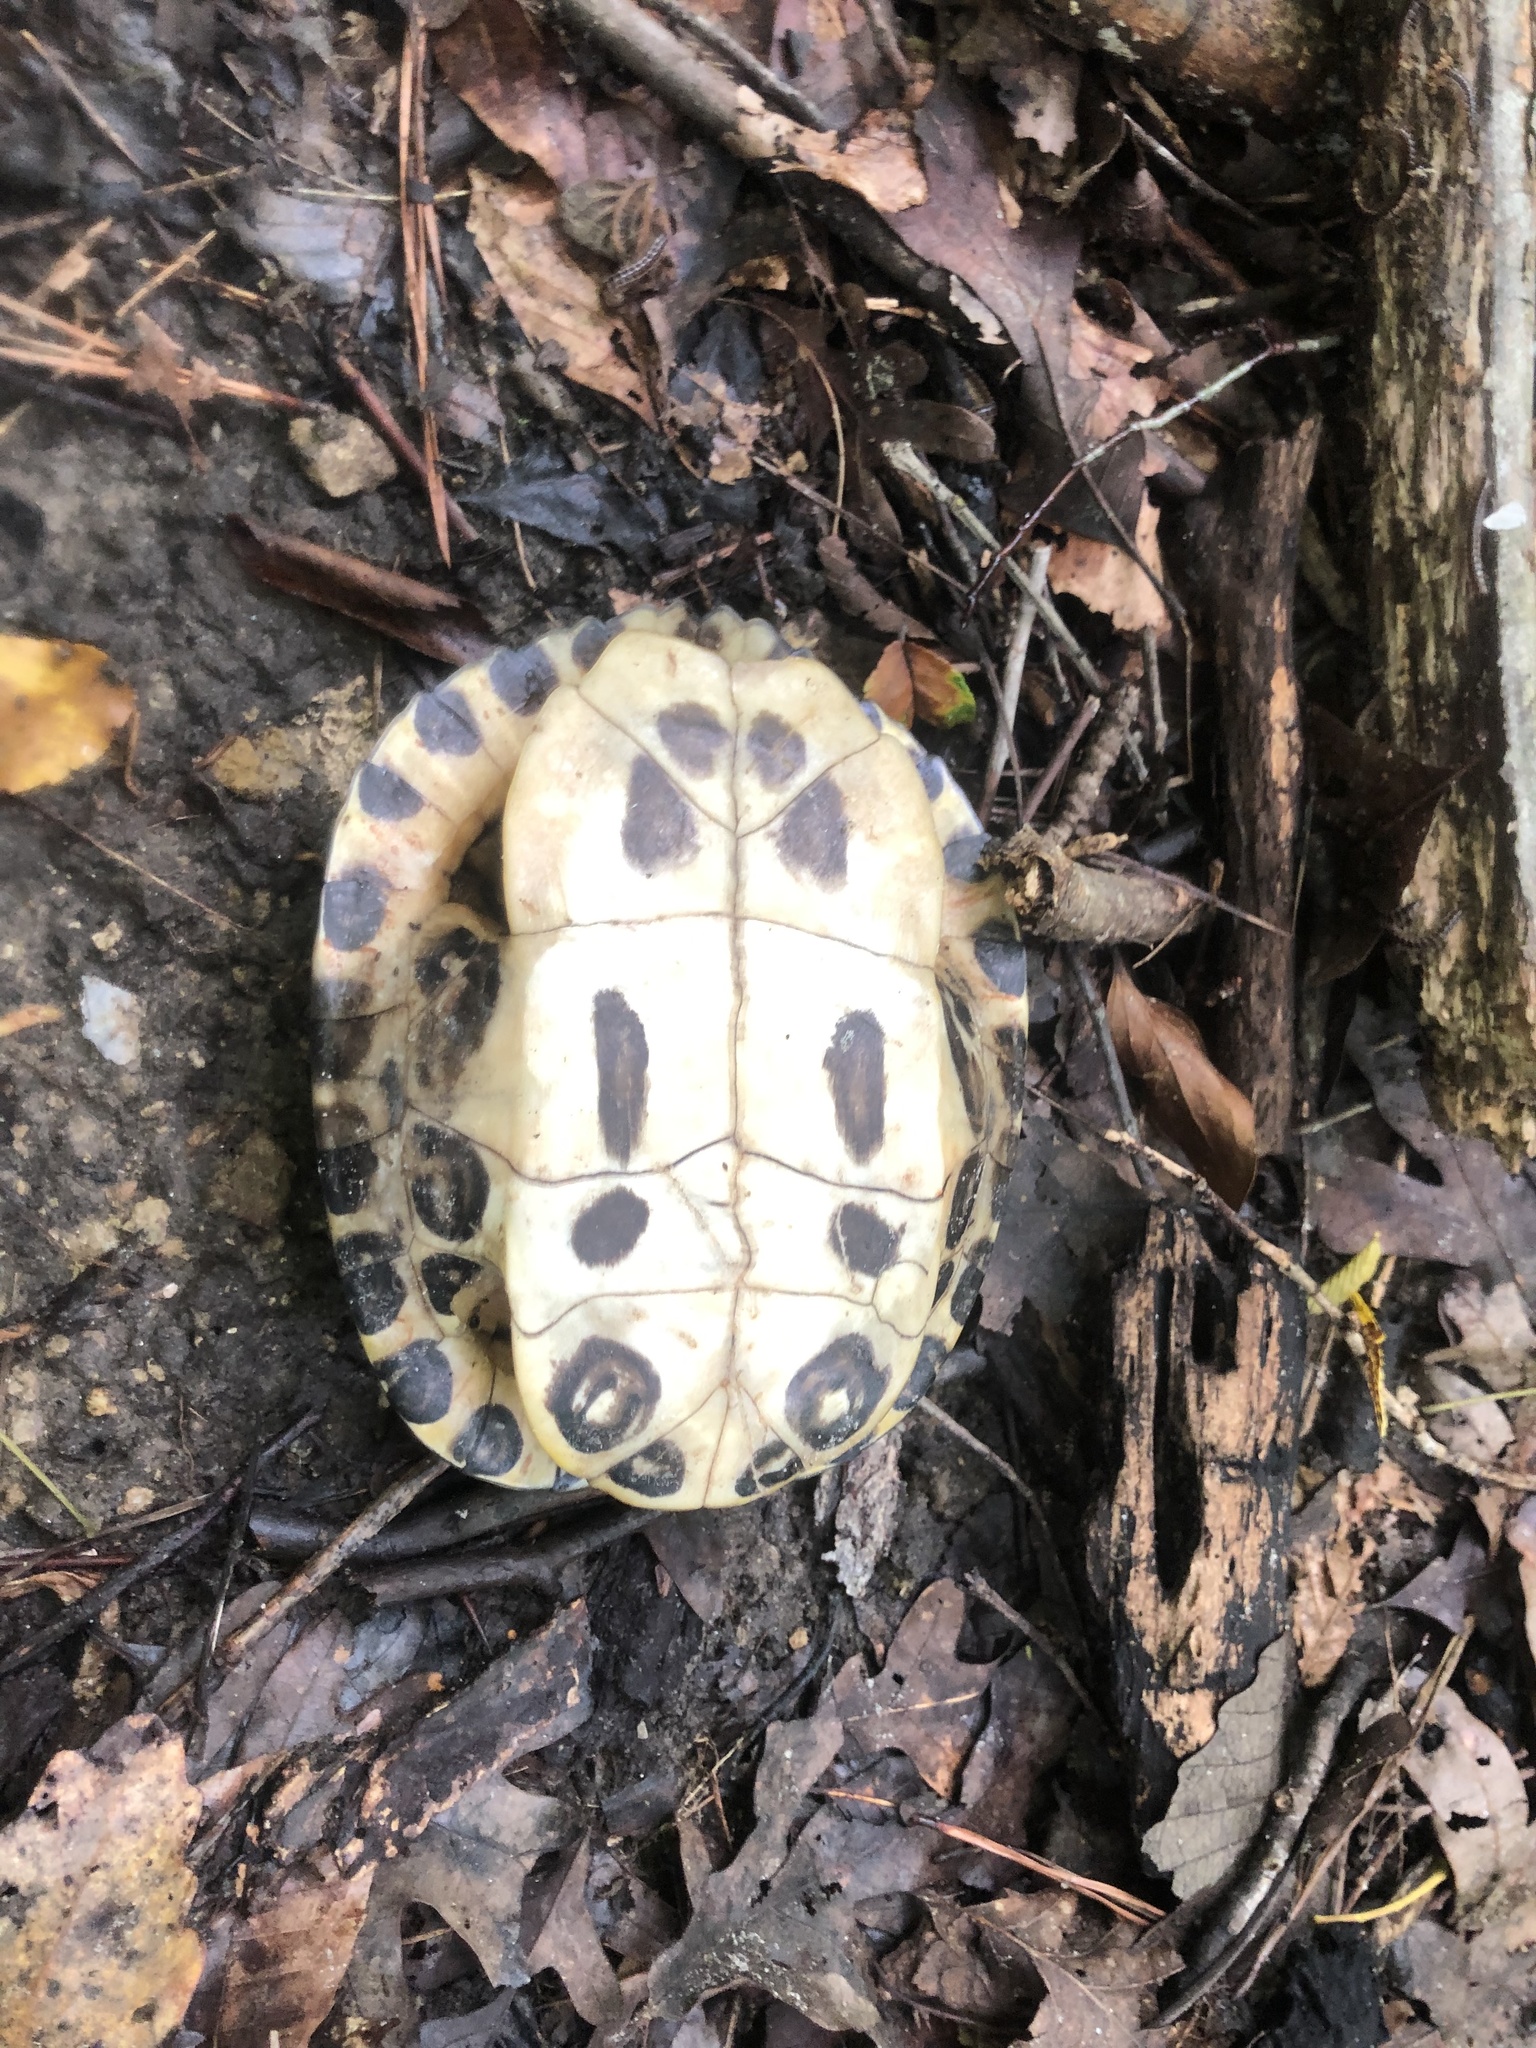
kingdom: Animalia
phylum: Chordata
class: Testudines
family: Emydidae
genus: Trachemys
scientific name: Trachemys scripta
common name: Slider
